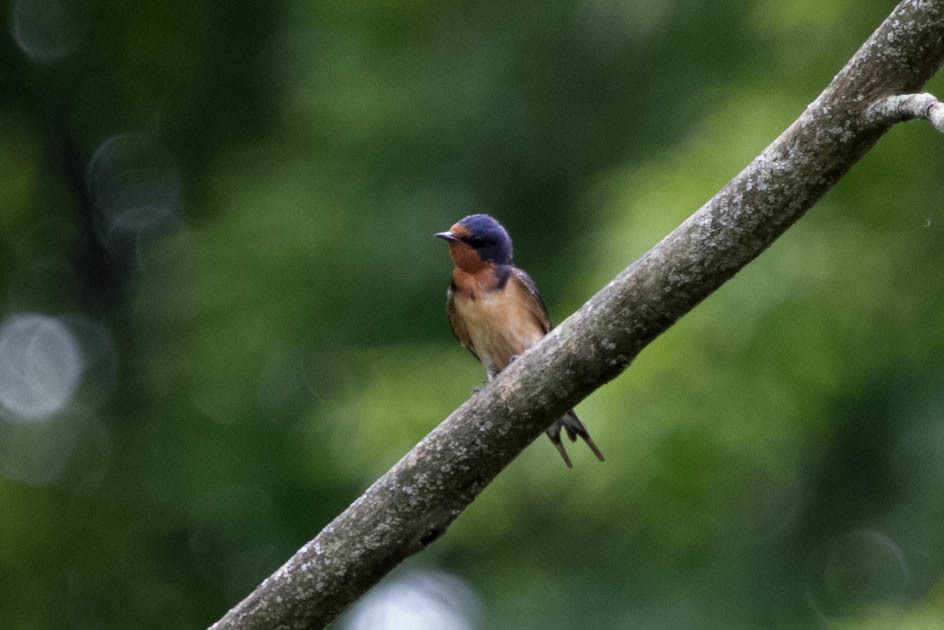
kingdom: Animalia
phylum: Chordata
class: Aves
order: Passeriformes
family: Hirundinidae
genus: Hirundo
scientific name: Hirundo rustica
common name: Barn swallow
